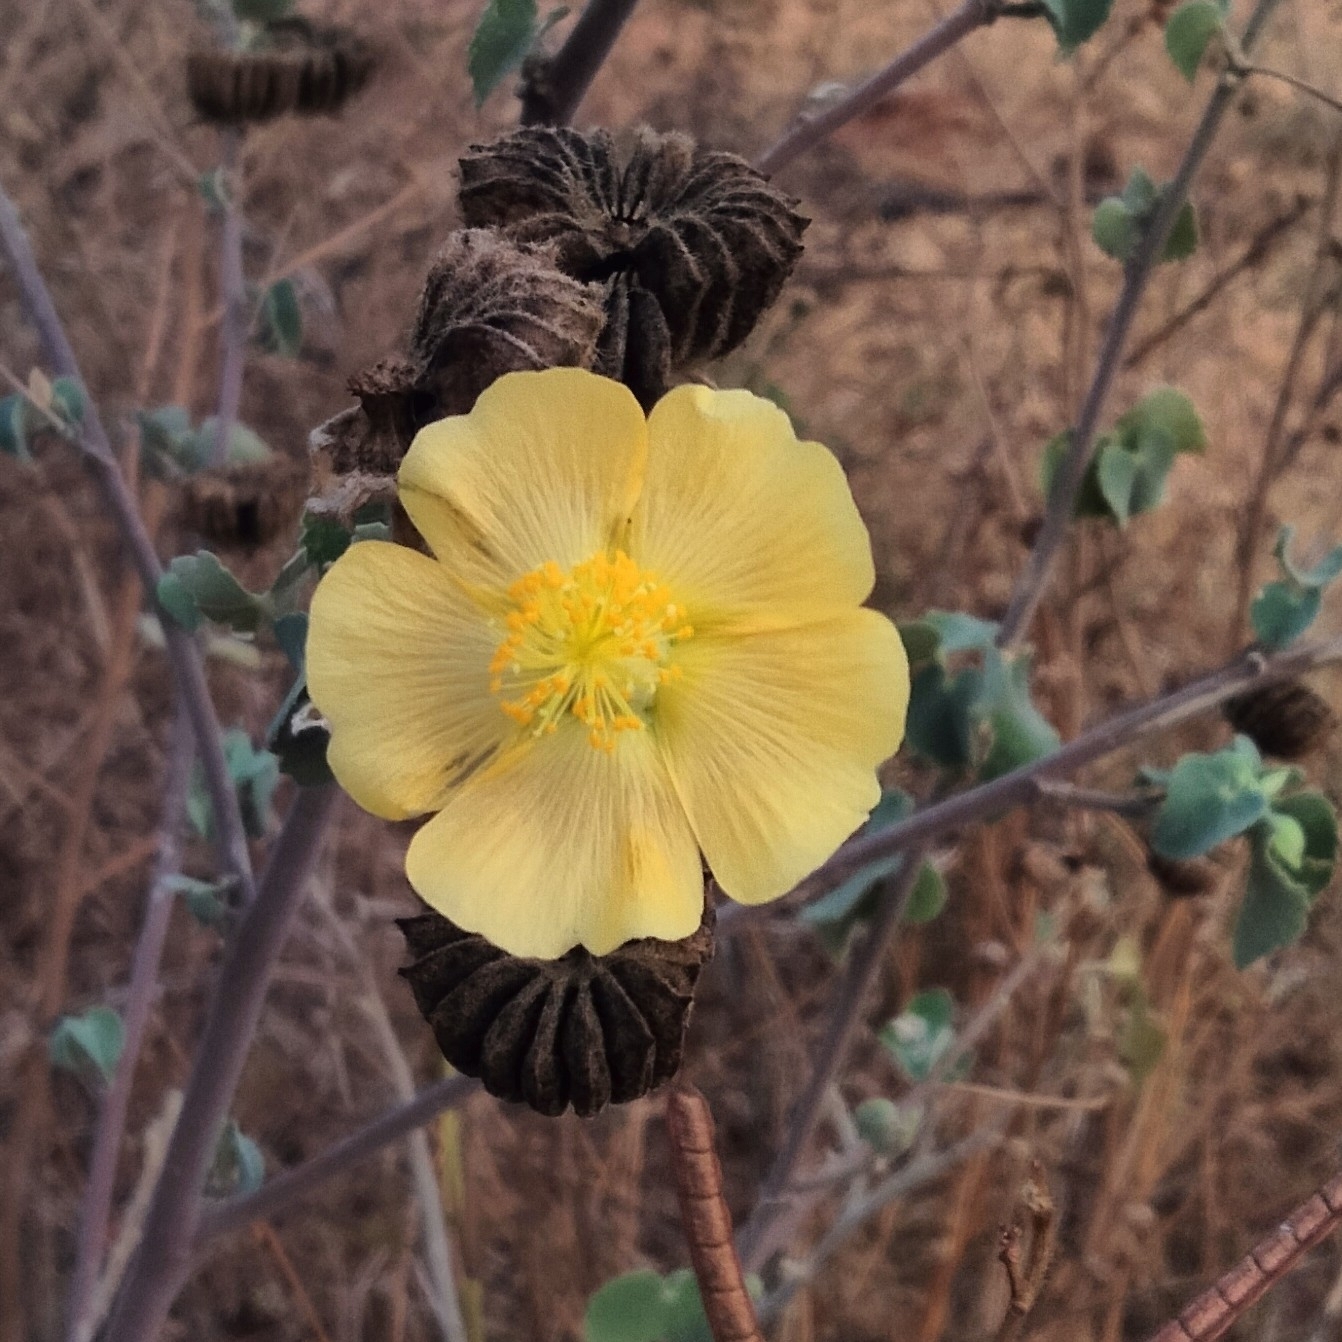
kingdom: Plantae
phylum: Tracheophyta
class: Magnoliopsida
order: Malvales
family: Malvaceae
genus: Abutilon
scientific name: Abutilon indicum
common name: Indian abutilon
